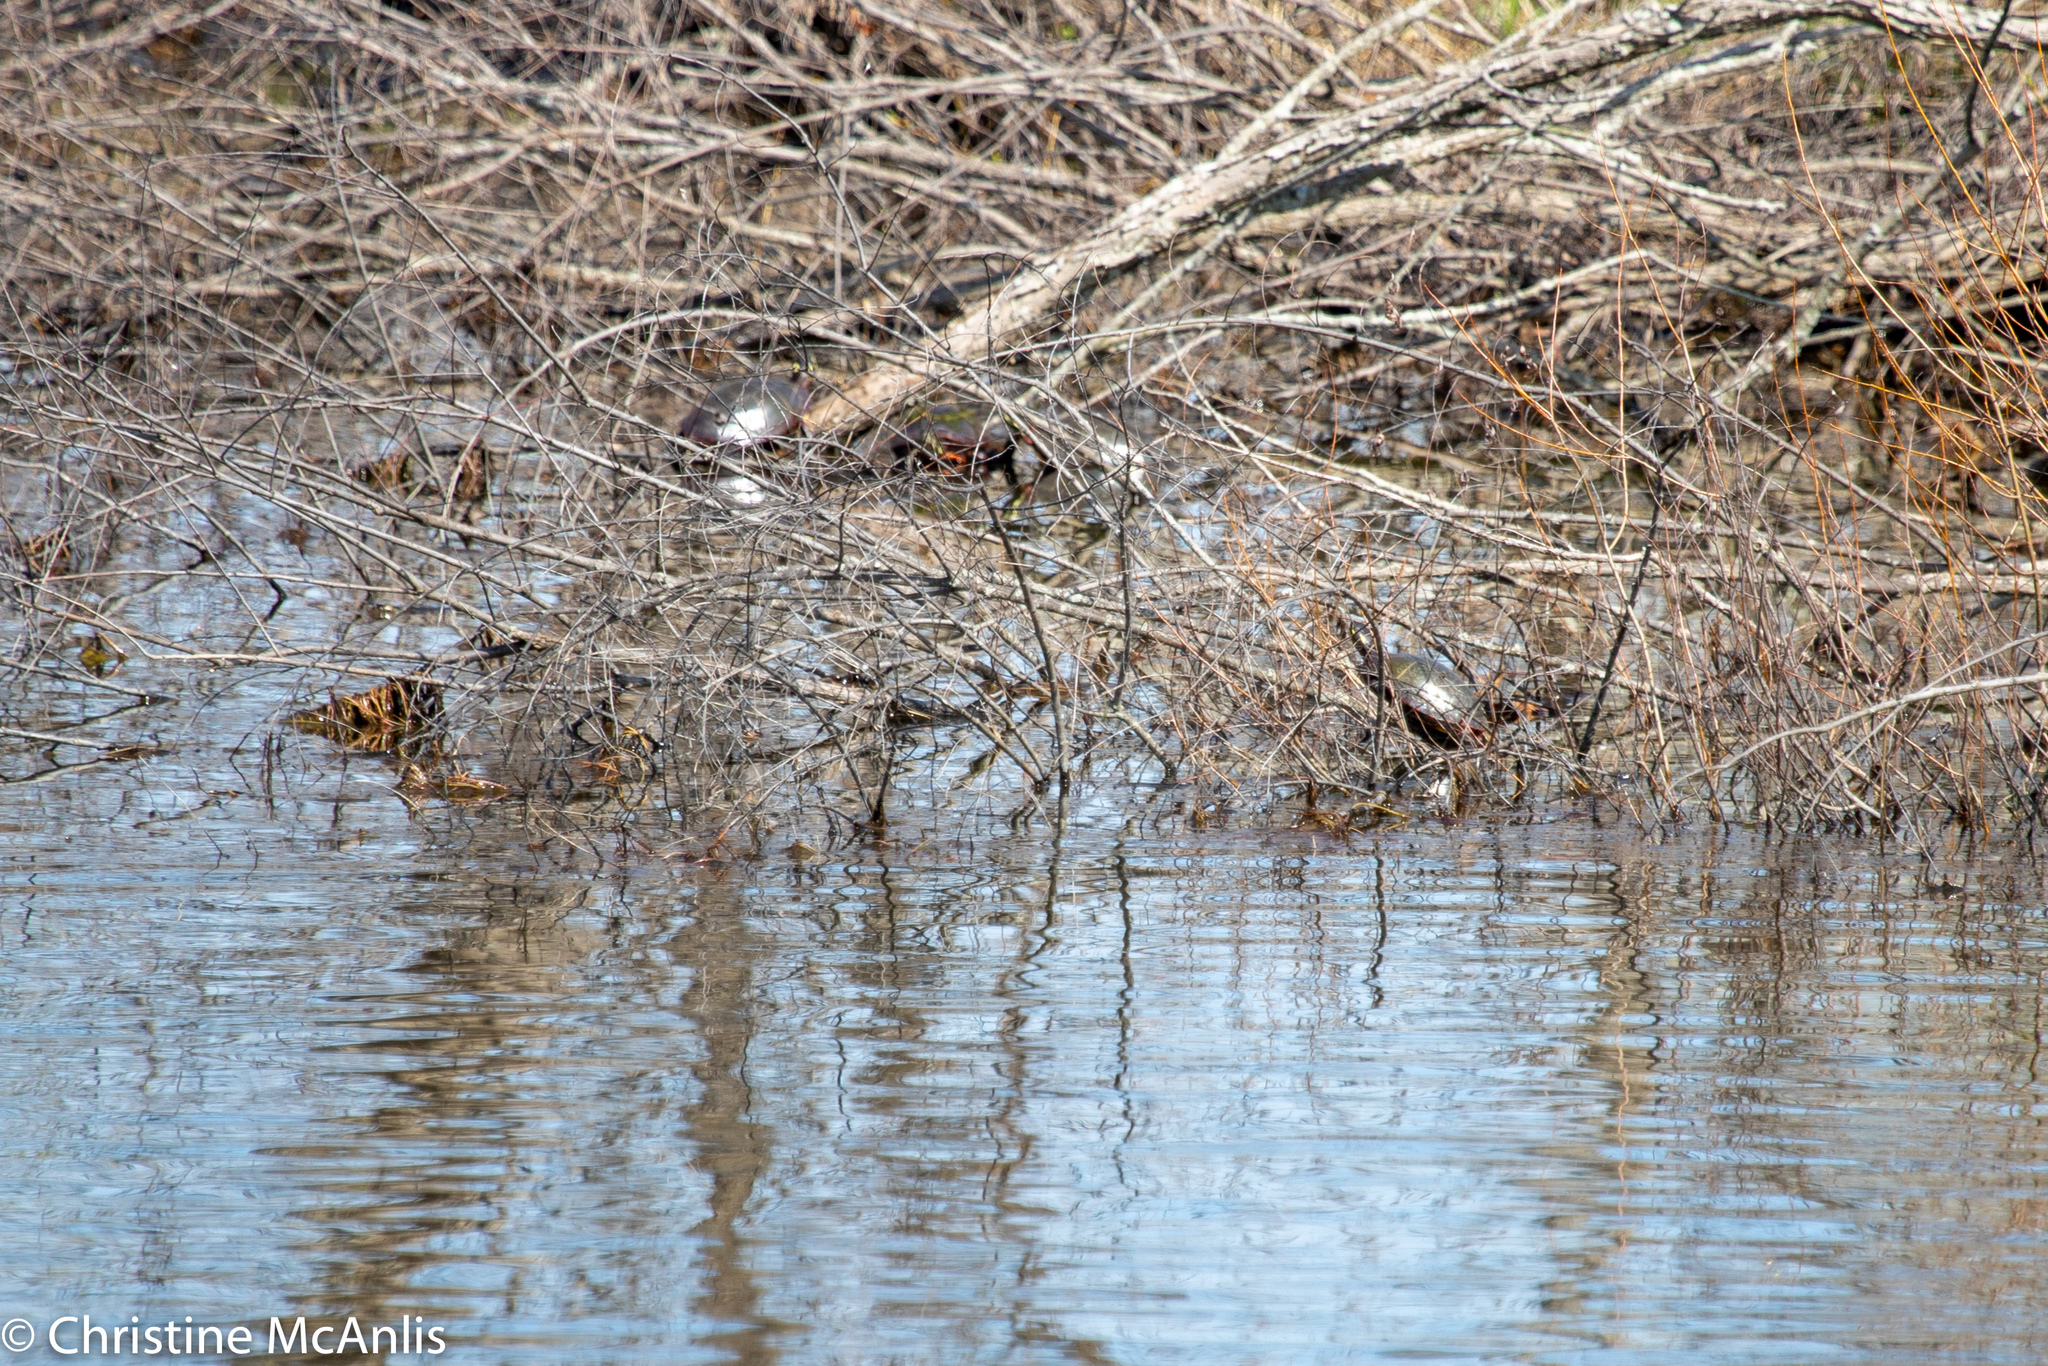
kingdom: Animalia
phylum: Chordata
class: Testudines
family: Emydidae
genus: Chrysemys
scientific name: Chrysemys picta
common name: Painted turtle
